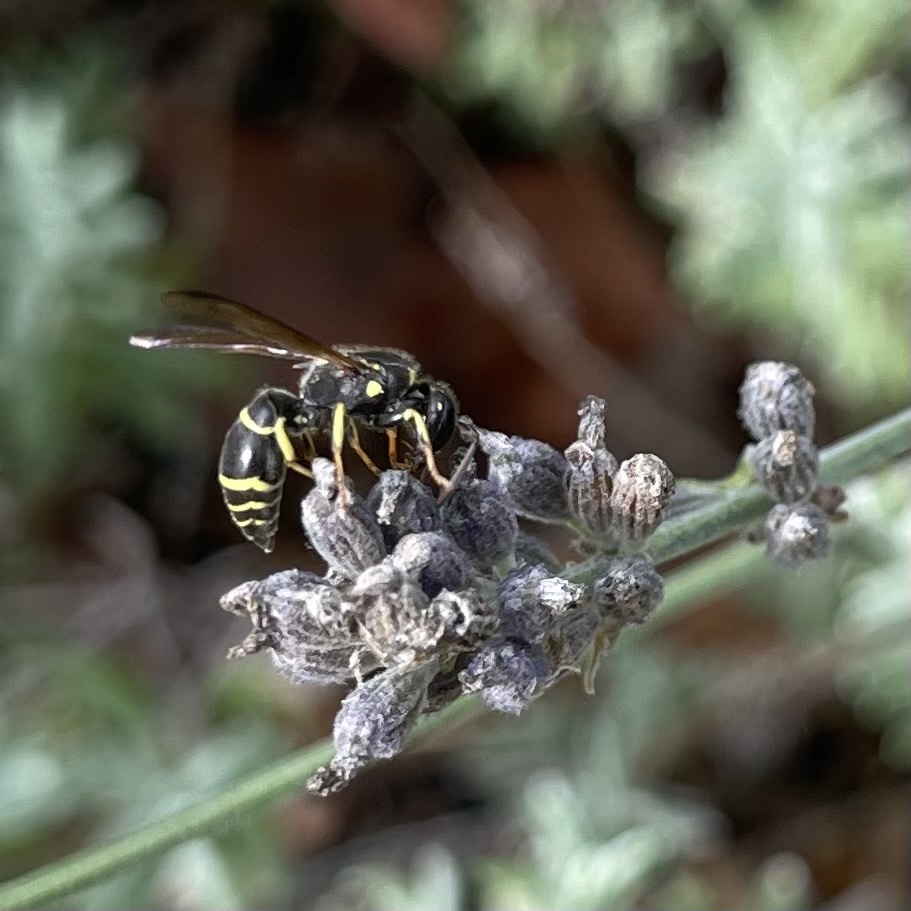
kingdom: Animalia
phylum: Arthropoda
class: Insecta
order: Hymenoptera
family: Vespidae
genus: Ancistrocerus
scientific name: Ancistrocerus adiabatus
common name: Bramble mason wasp
